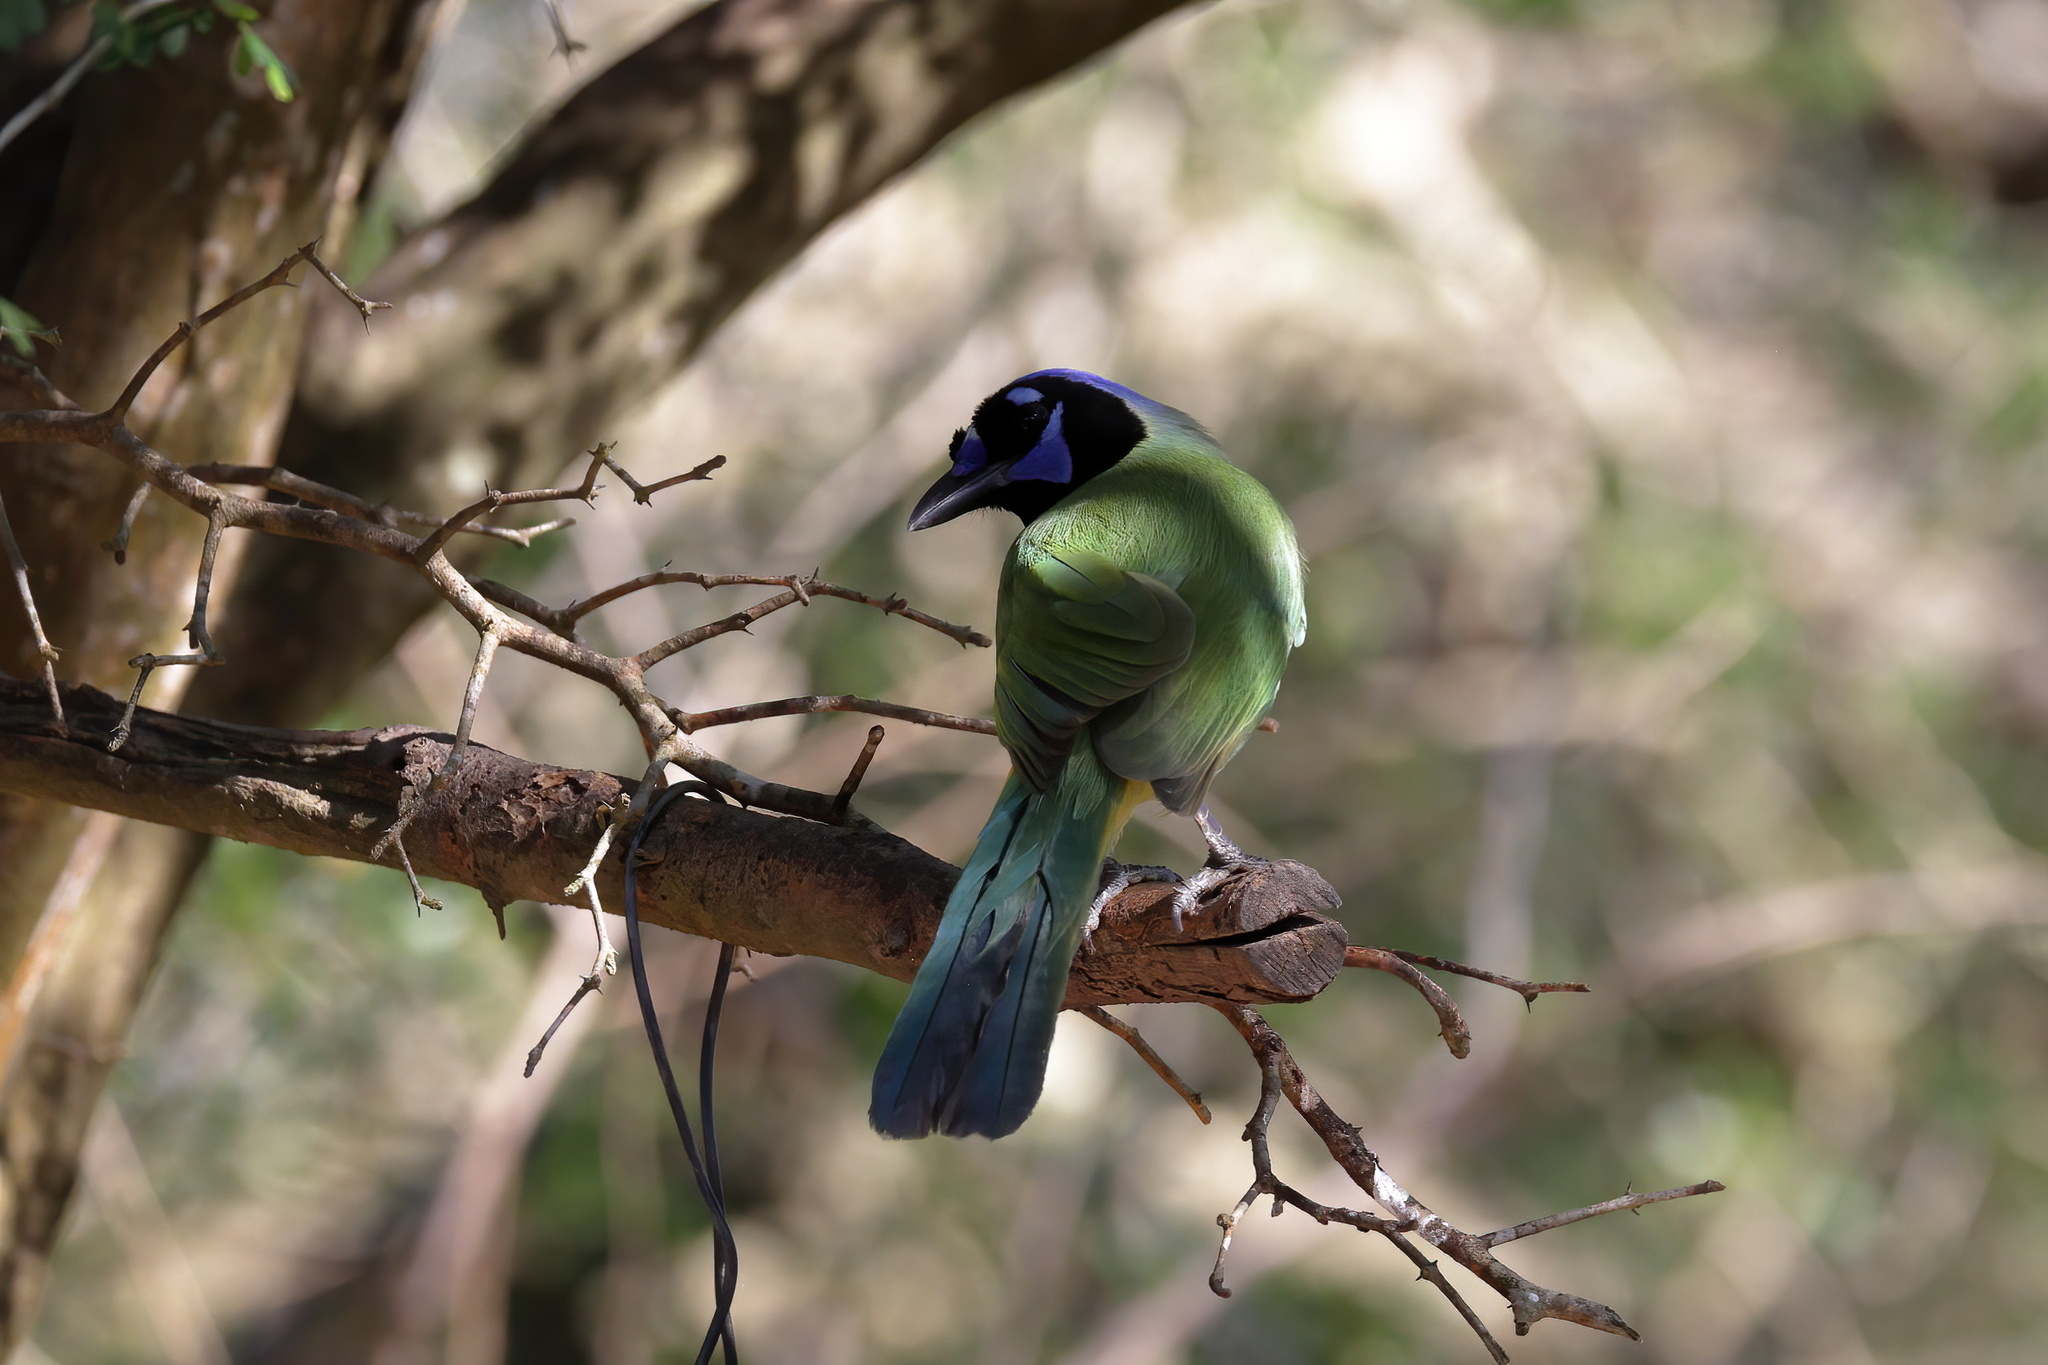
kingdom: Animalia
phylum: Chordata
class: Aves
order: Passeriformes
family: Corvidae
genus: Cyanocorax
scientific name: Cyanocorax yncas
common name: Green jay
